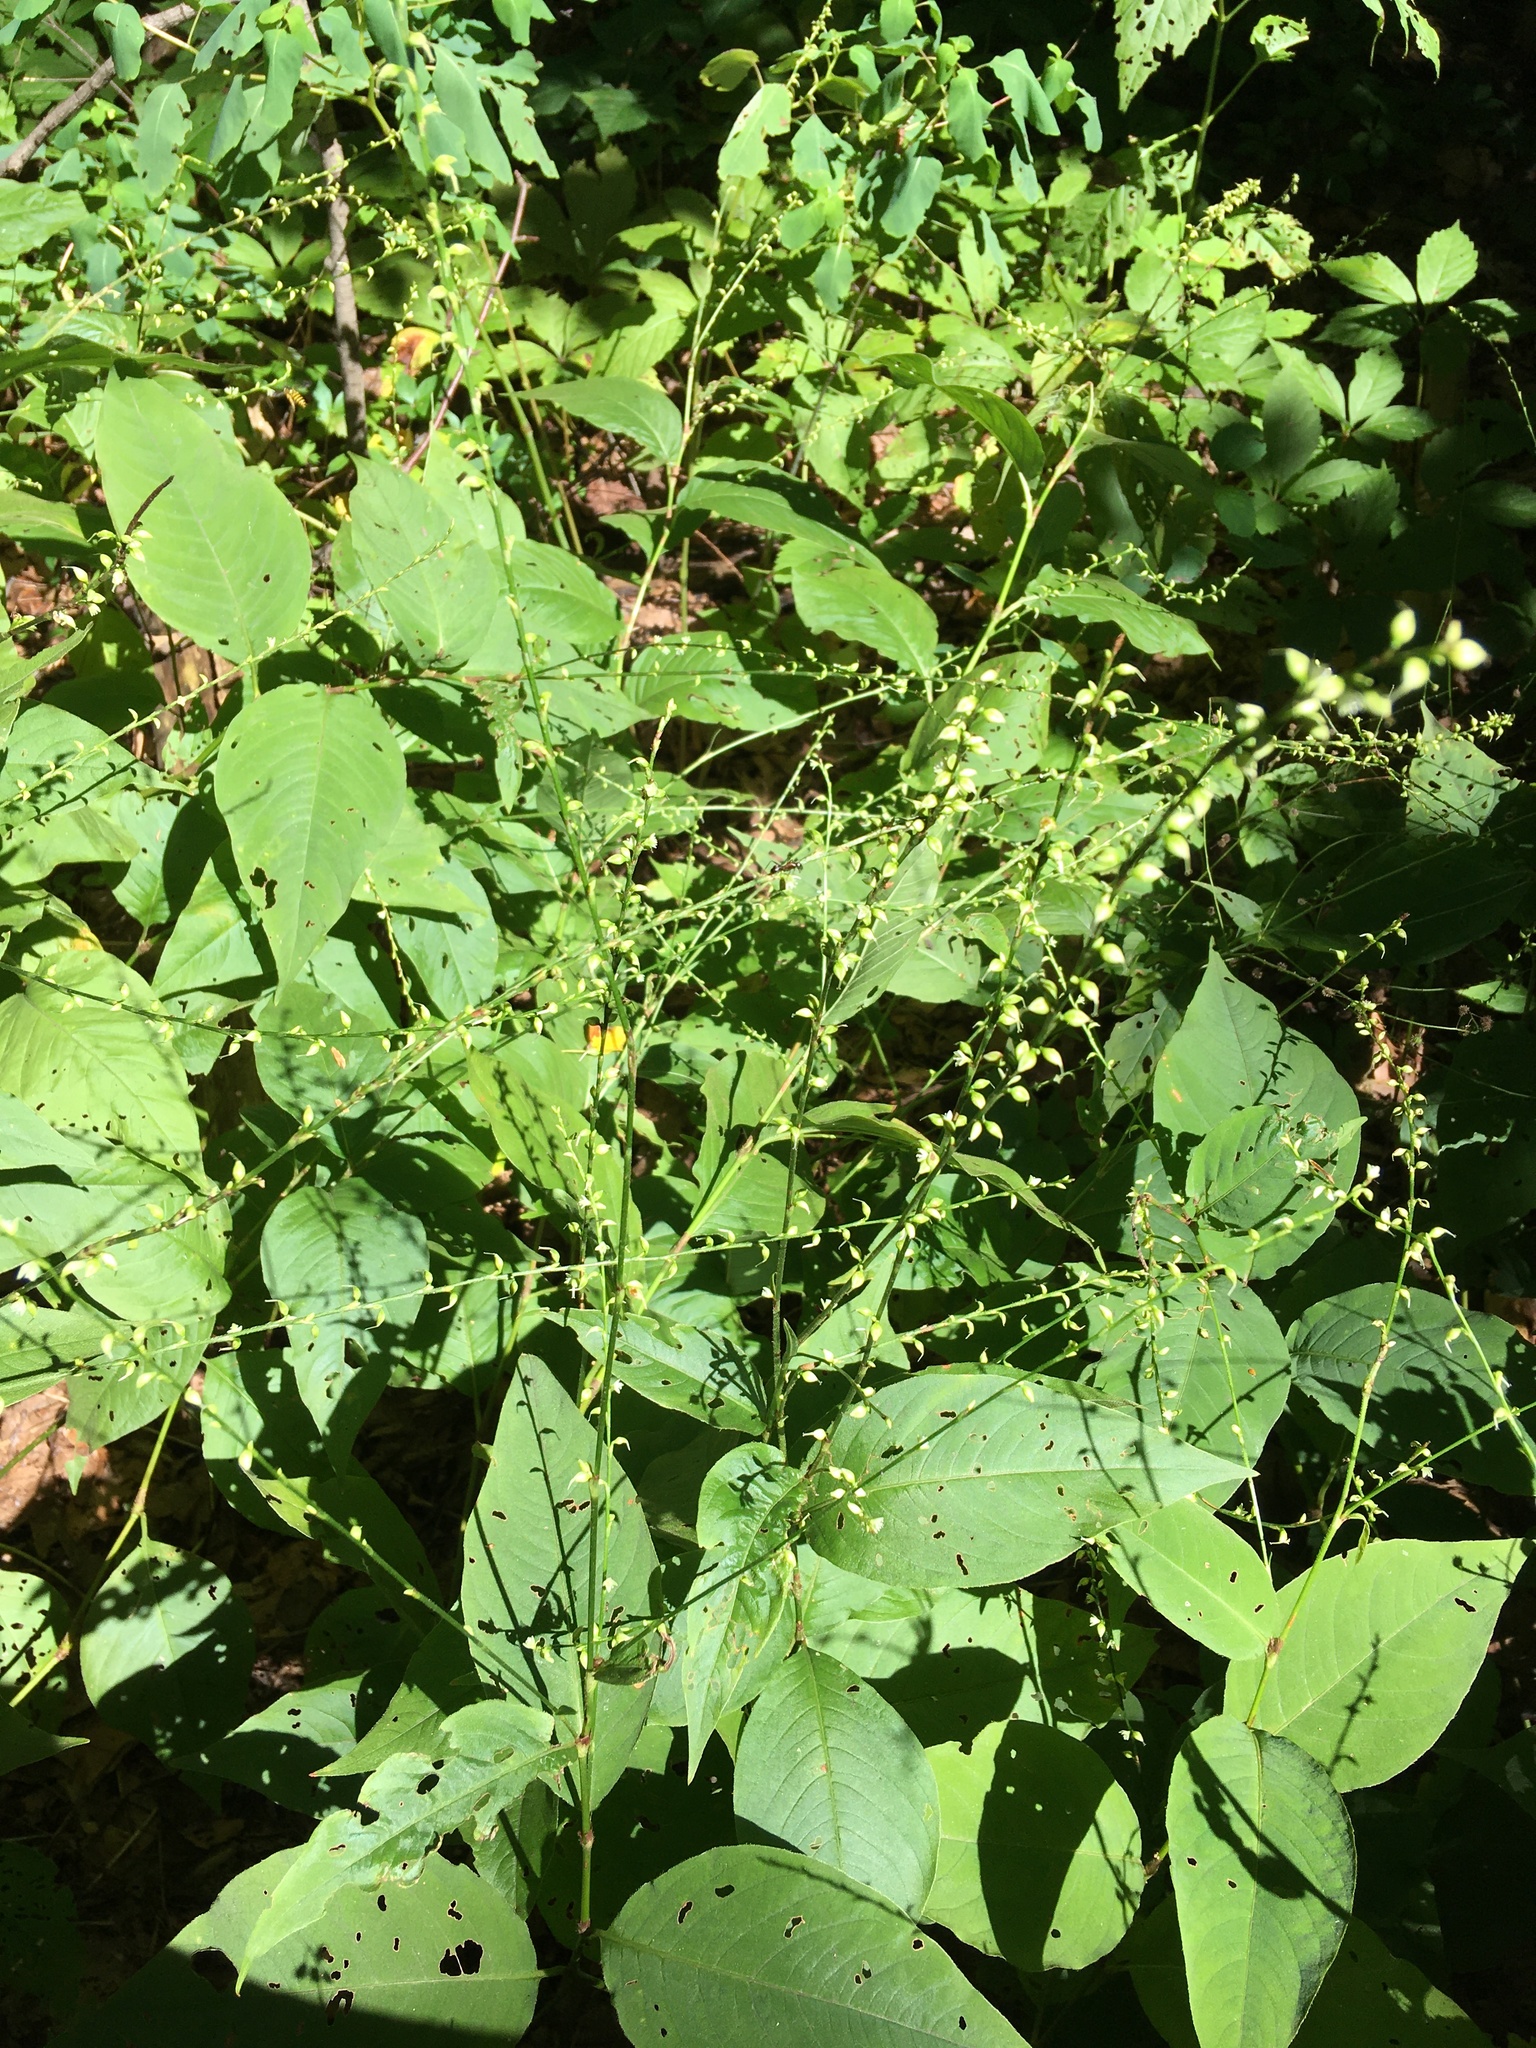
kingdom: Plantae
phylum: Tracheophyta
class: Magnoliopsida
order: Caryophyllales
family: Polygonaceae
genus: Persicaria
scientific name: Persicaria virginiana
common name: Jumpseed
